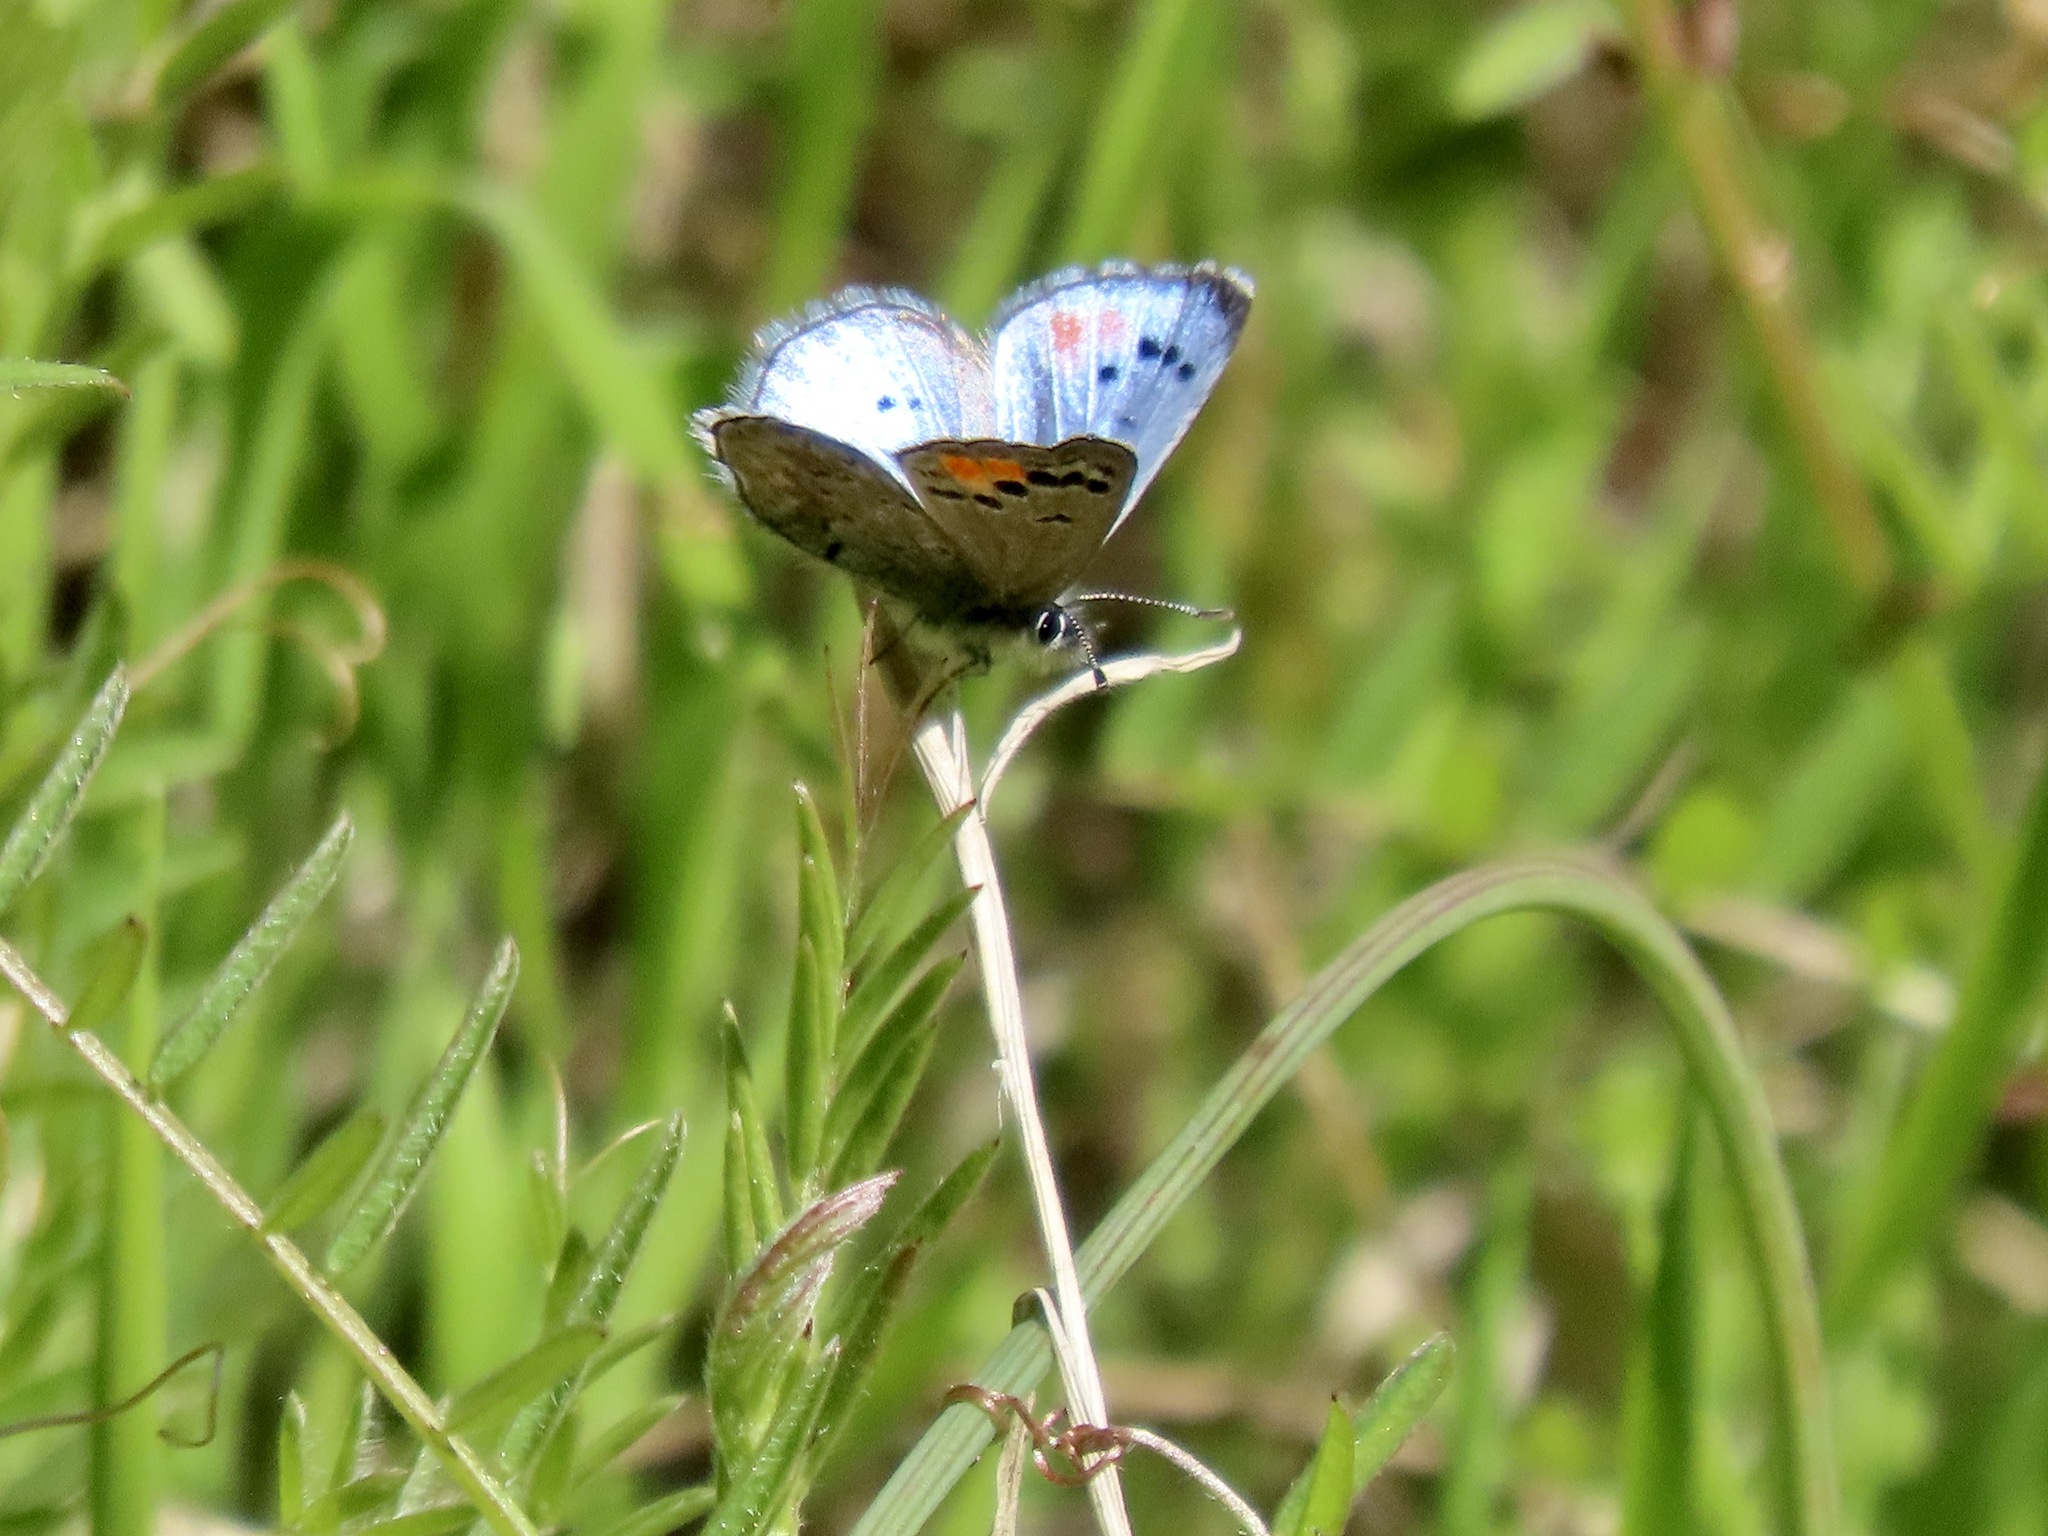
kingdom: Animalia
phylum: Arthropoda
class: Insecta
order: Lepidoptera
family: Lycaenidae
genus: Philotes
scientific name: Philotes sonorensis
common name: Sonoran blue
